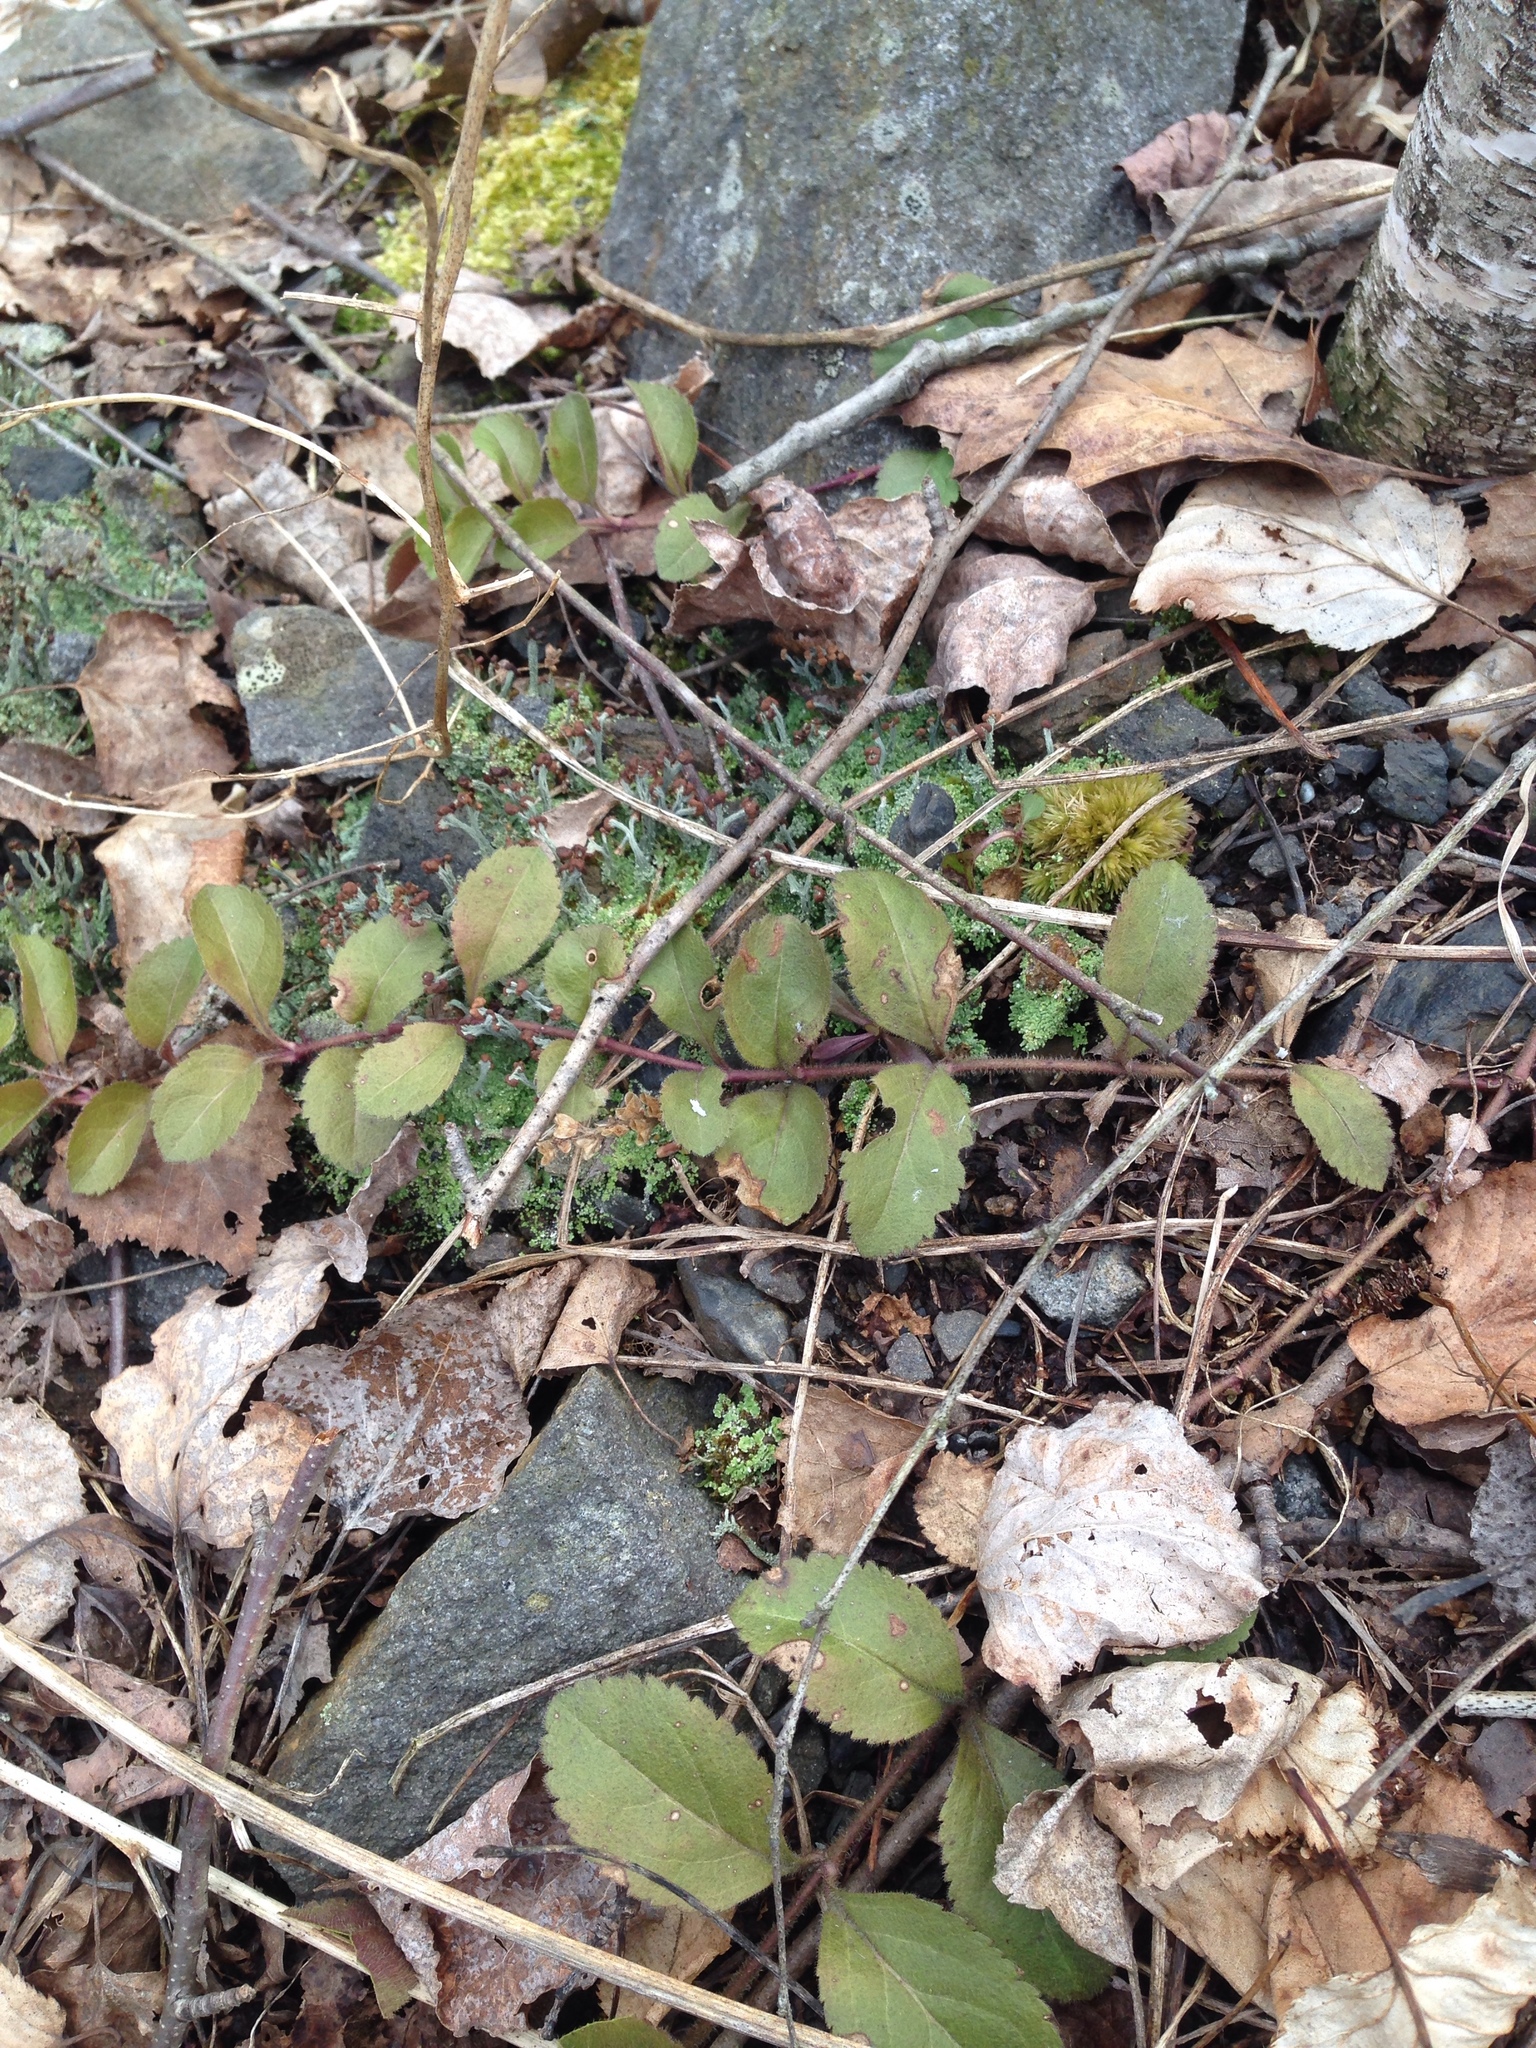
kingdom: Plantae
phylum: Tracheophyta
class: Magnoliopsida
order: Lamiales
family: Plantaginaceae
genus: Veronica
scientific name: Veronica officinalis
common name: Common speedwell
